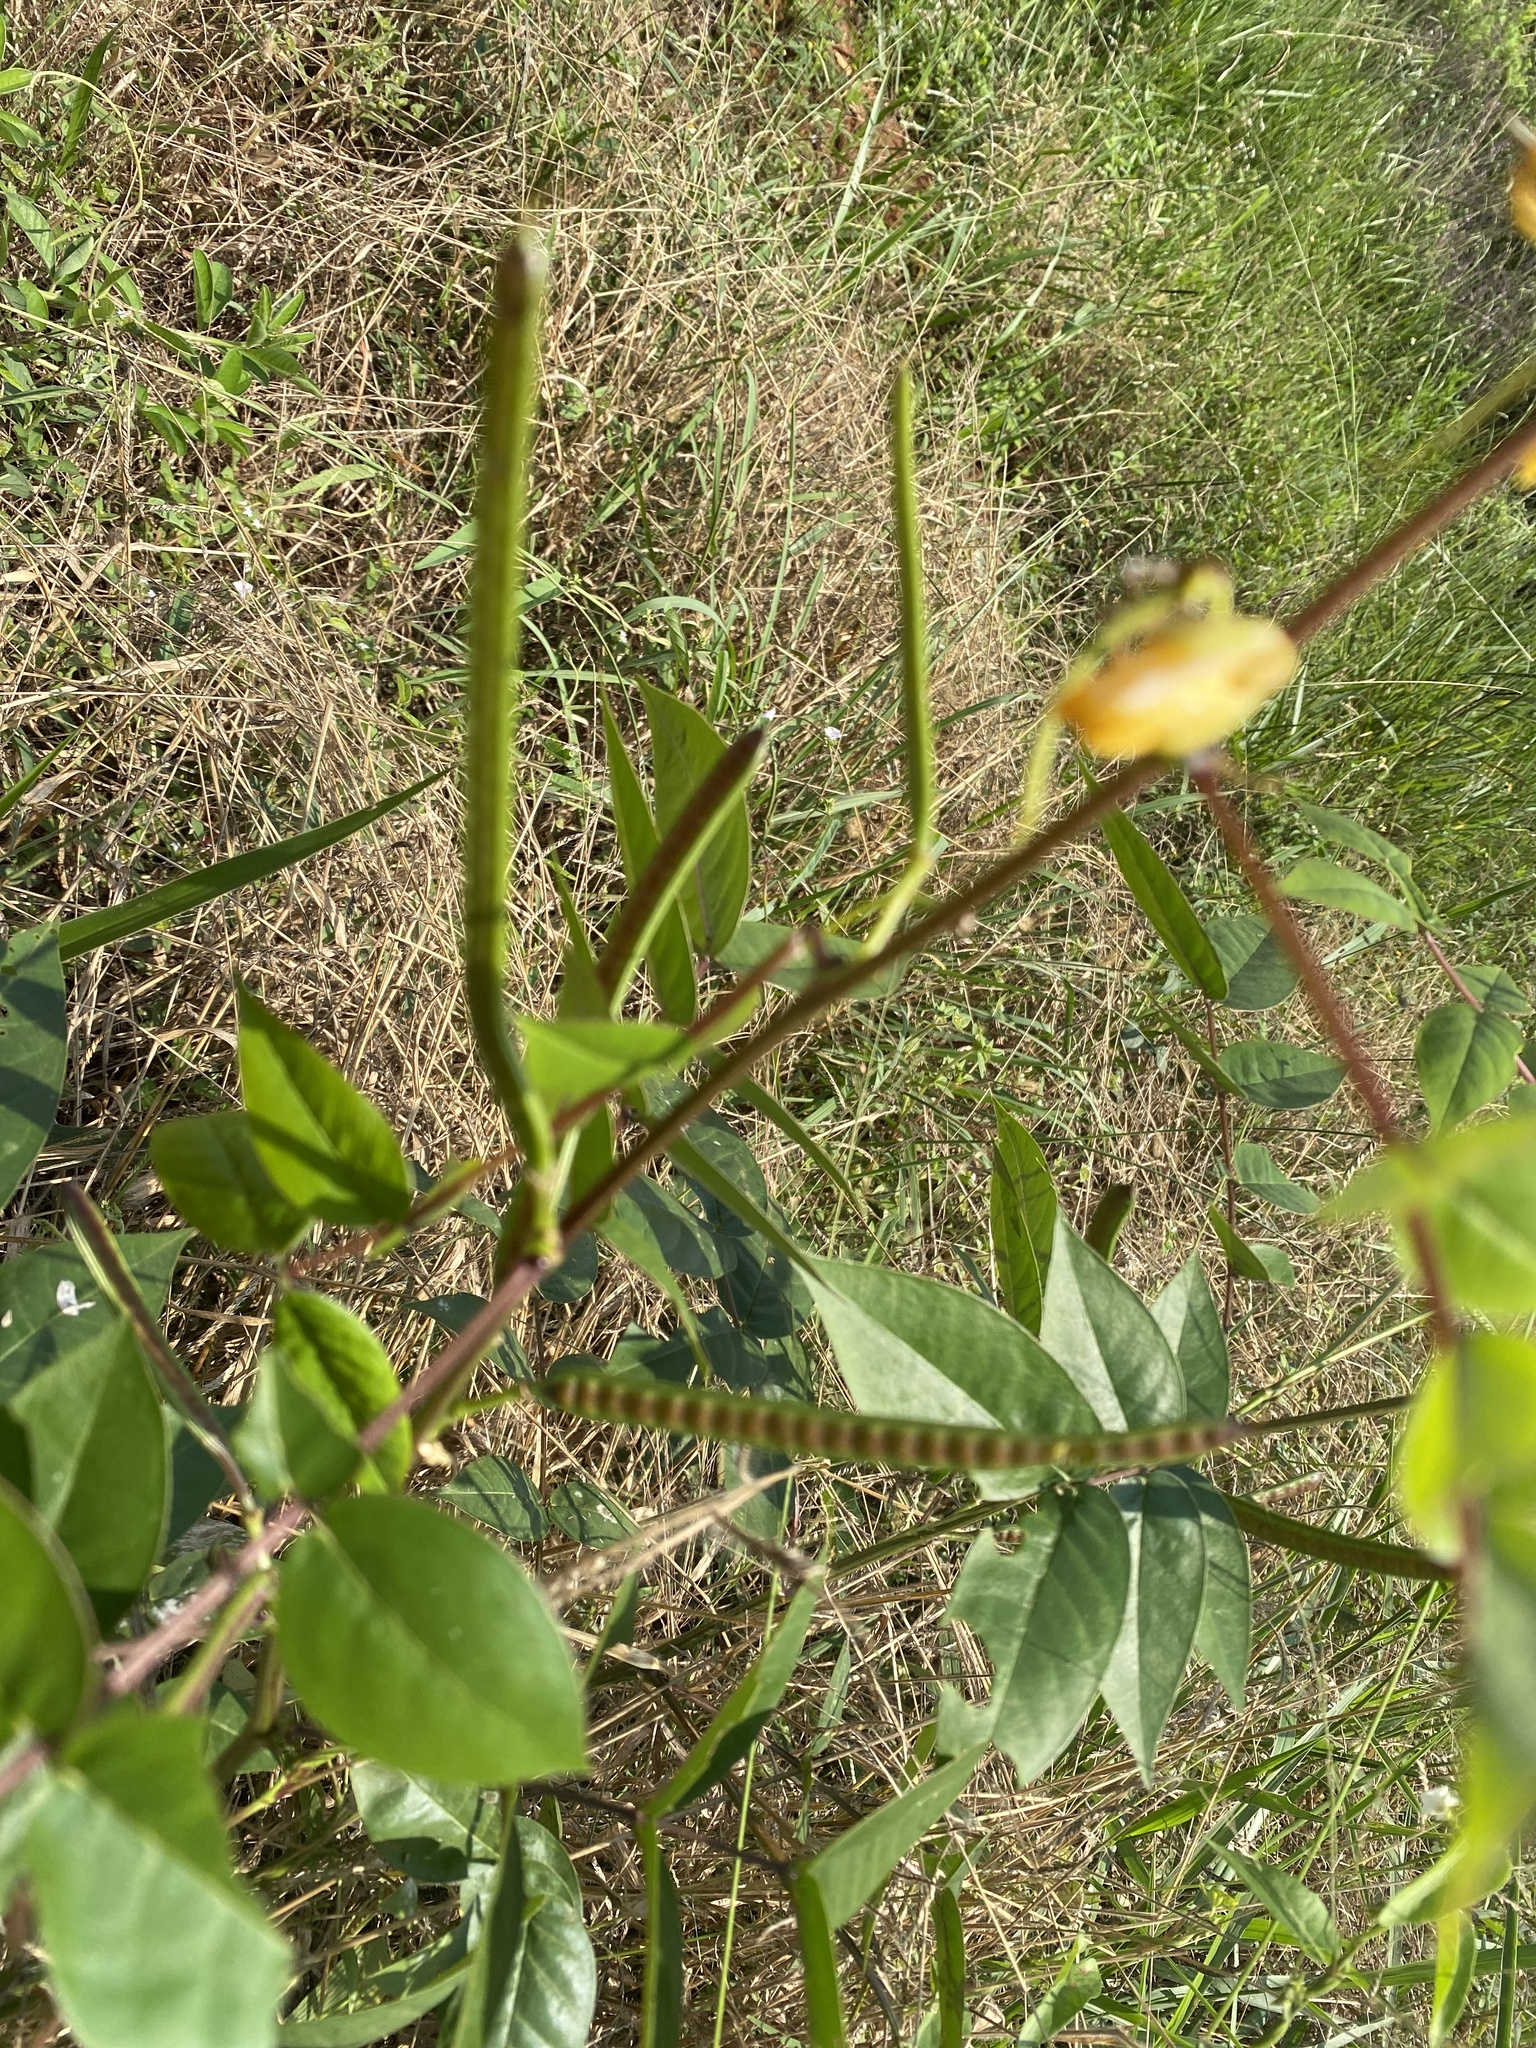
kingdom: Plantae
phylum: Tracheophyta
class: Magnoliopsida
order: Fabales
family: Fabaceae
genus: Senna
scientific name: Senna occidentalis
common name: Septicweed
